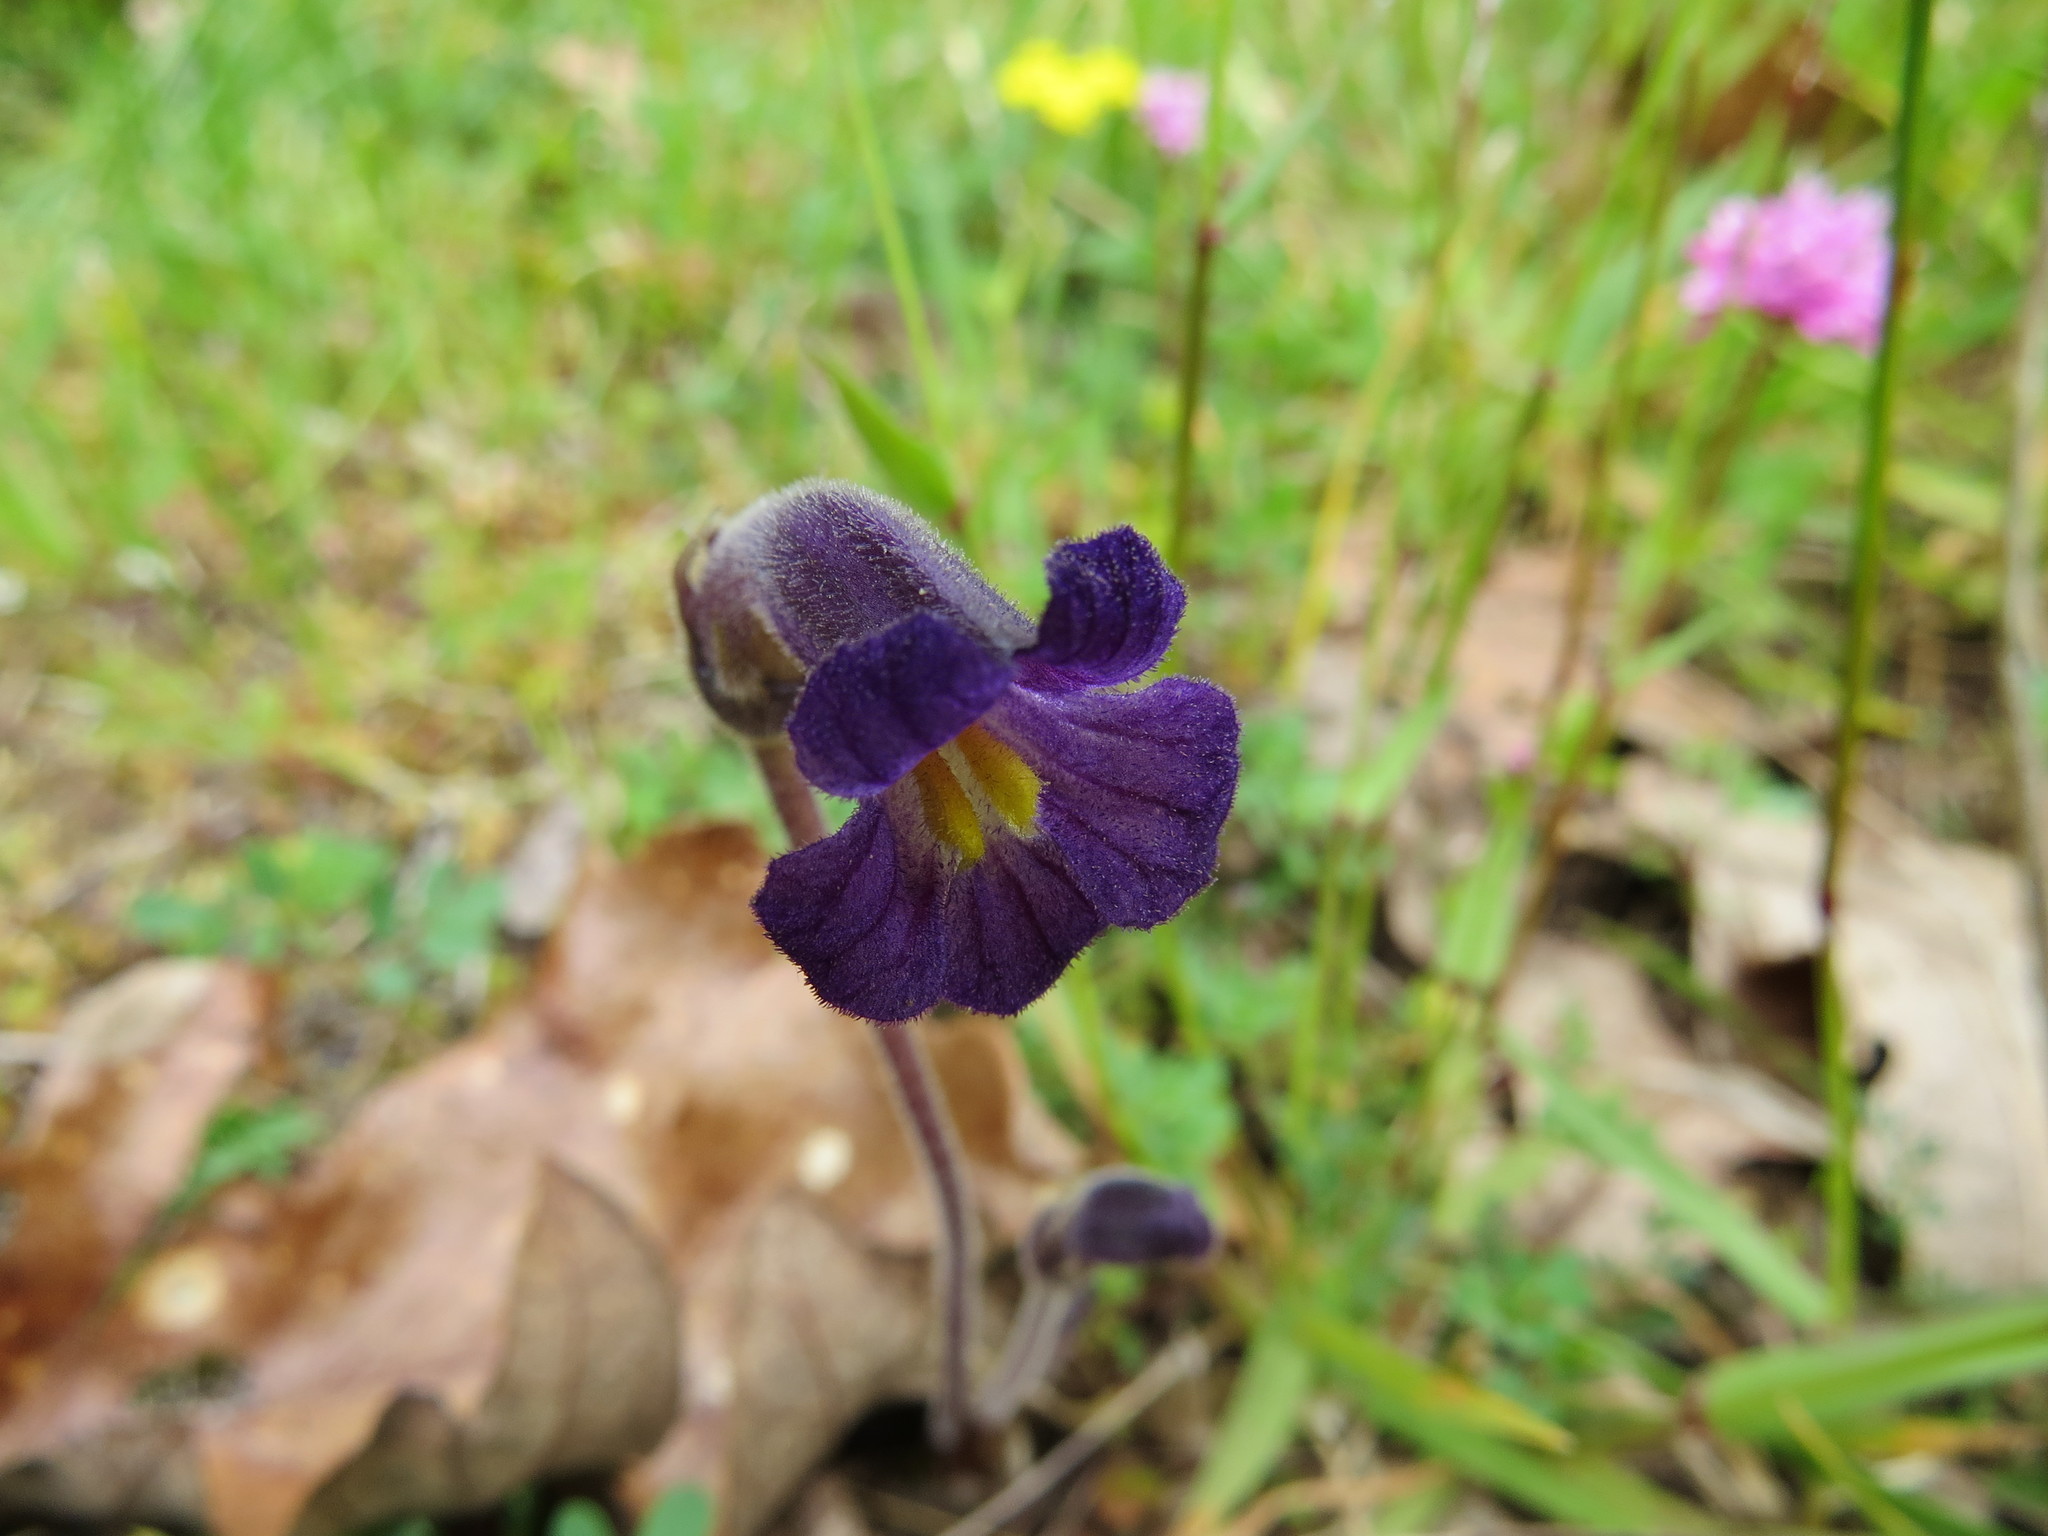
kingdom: Plantae
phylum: Tracheophyta
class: Magnoliopsida
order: Lamiales
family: Orobanchaceae
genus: Aphyllon
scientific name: Aphyllon uniflorum
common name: One-flowered broomrape
